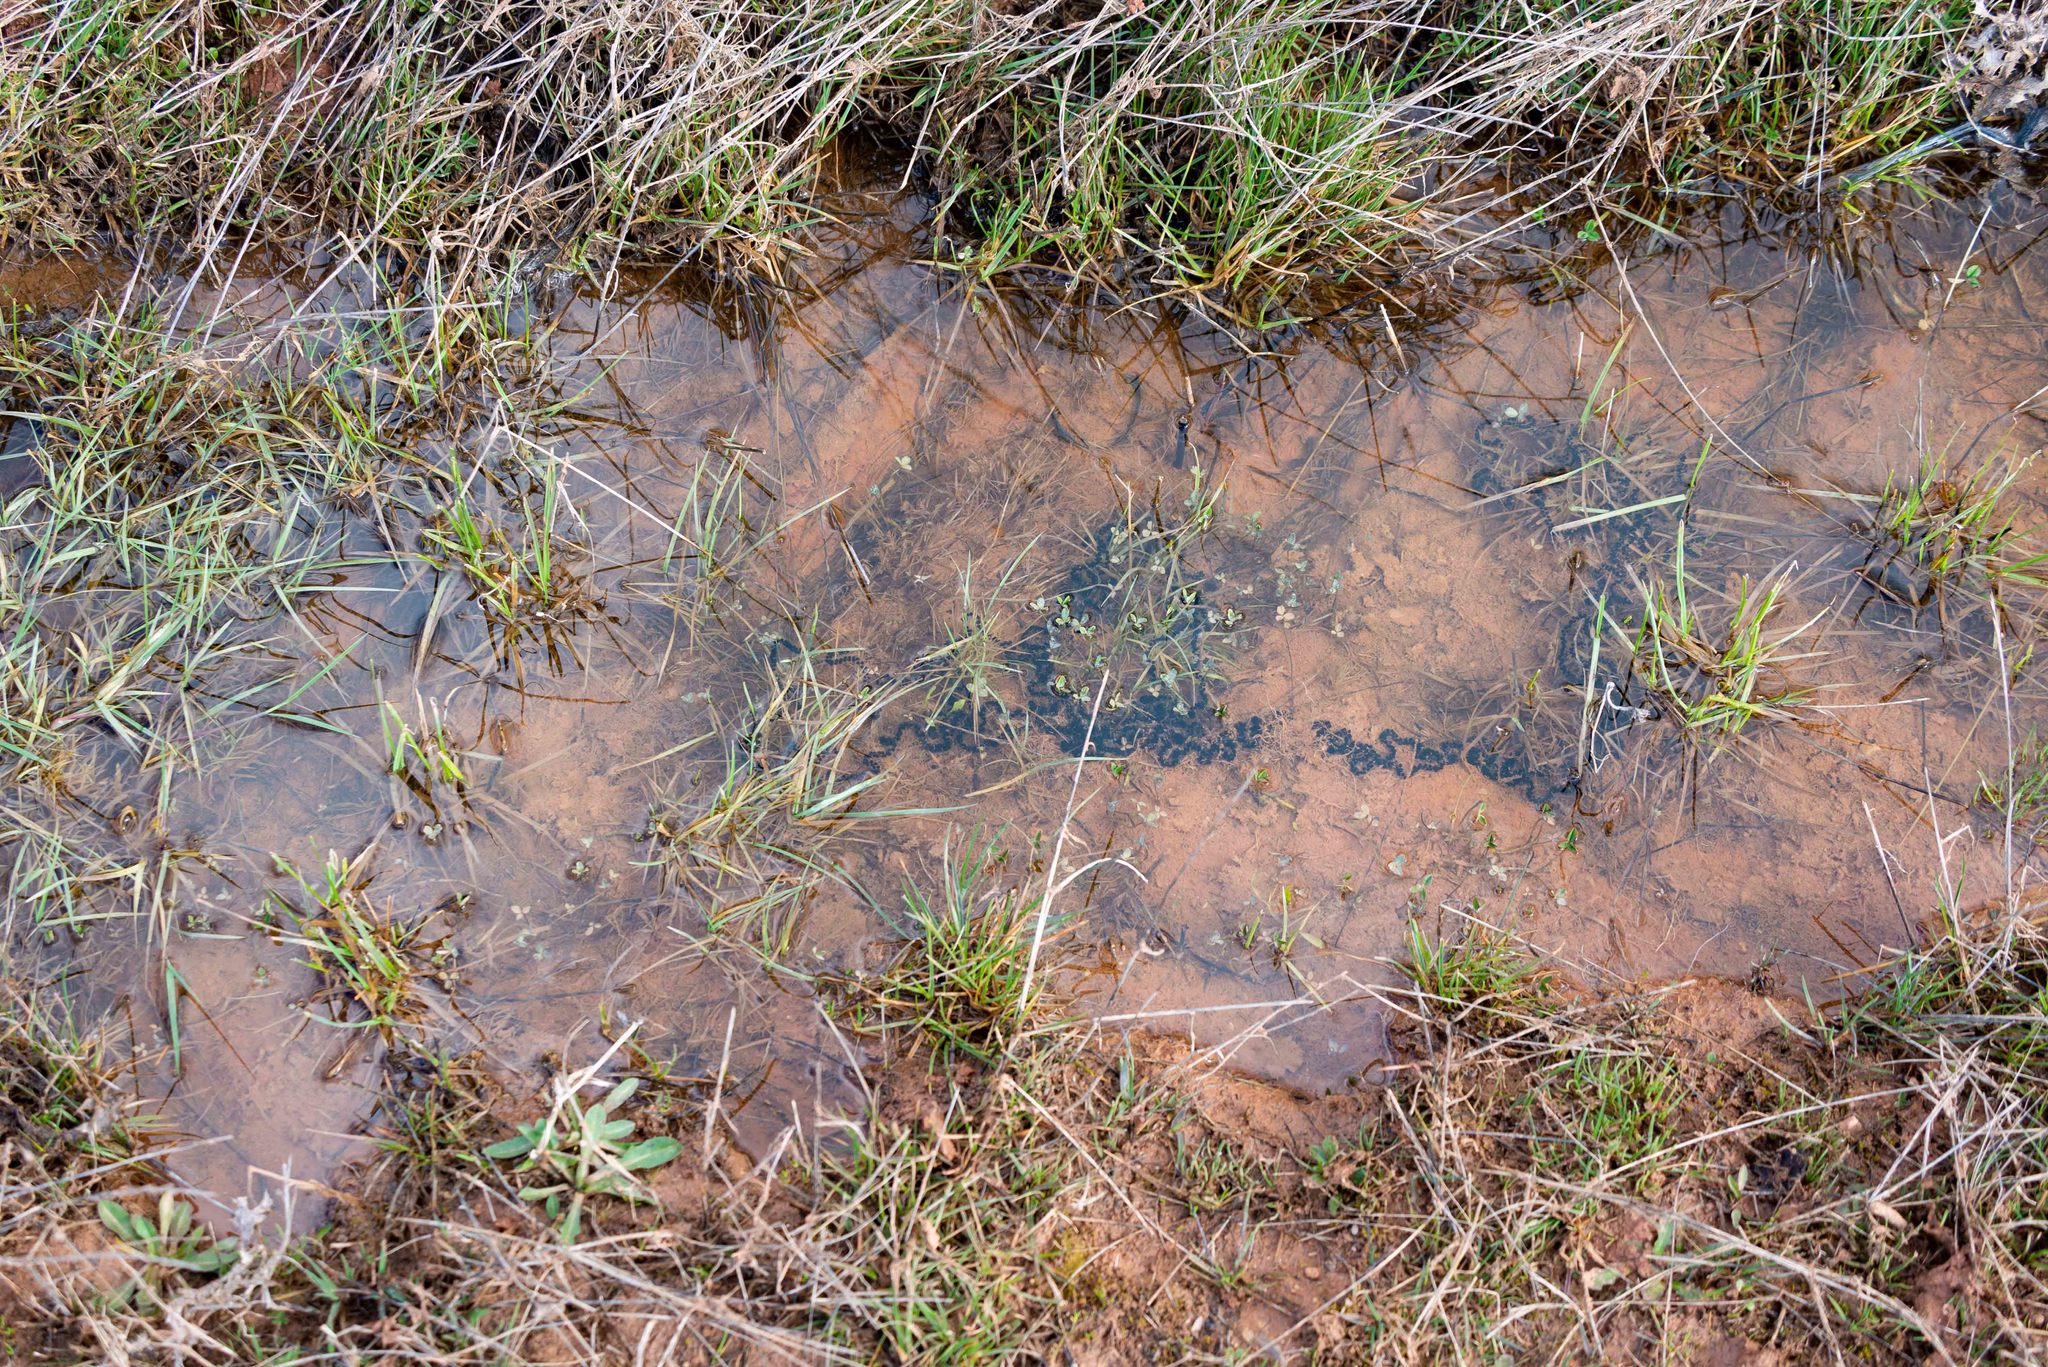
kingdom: Animalia
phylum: Chordata
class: Amphibia
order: Anura
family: Bufonidae
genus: Epidalea
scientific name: Epidalea calamita
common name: Natterjack toad
